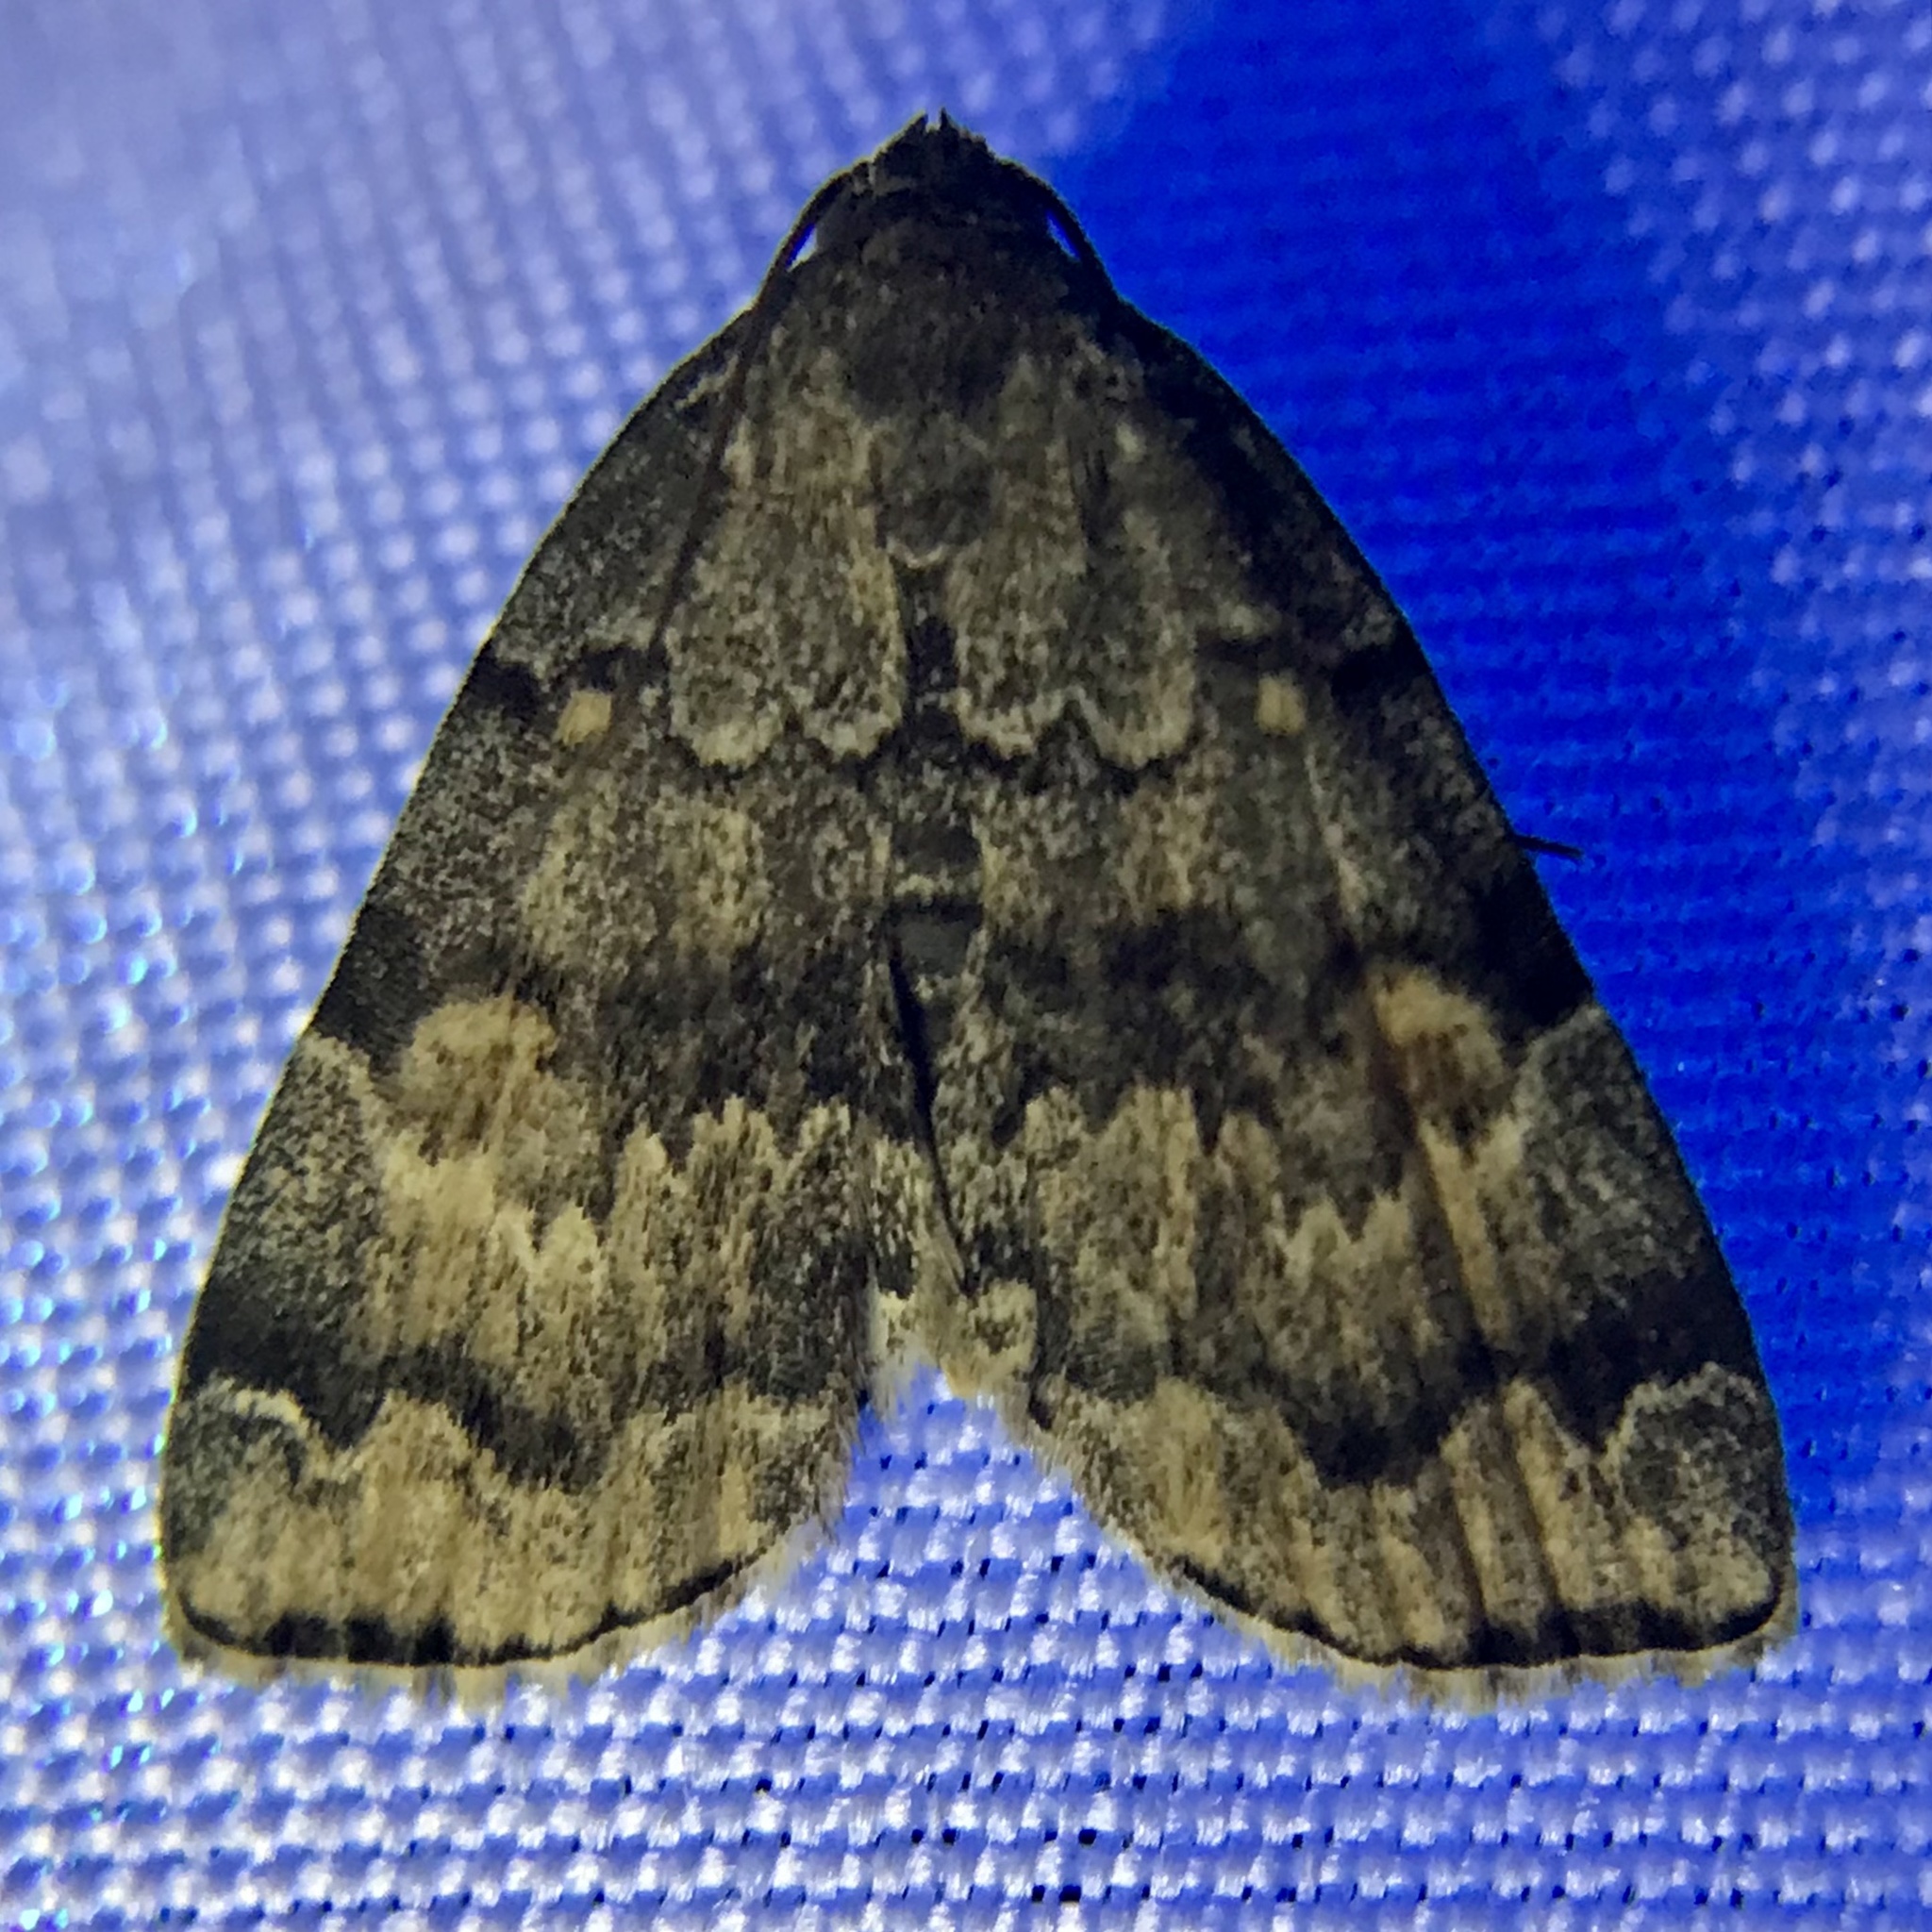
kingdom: Animalia
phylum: Arthropoda
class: Insecta
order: Lepidoptera
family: Erebidae
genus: Idia
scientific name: Idia americalis
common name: American idia moth
